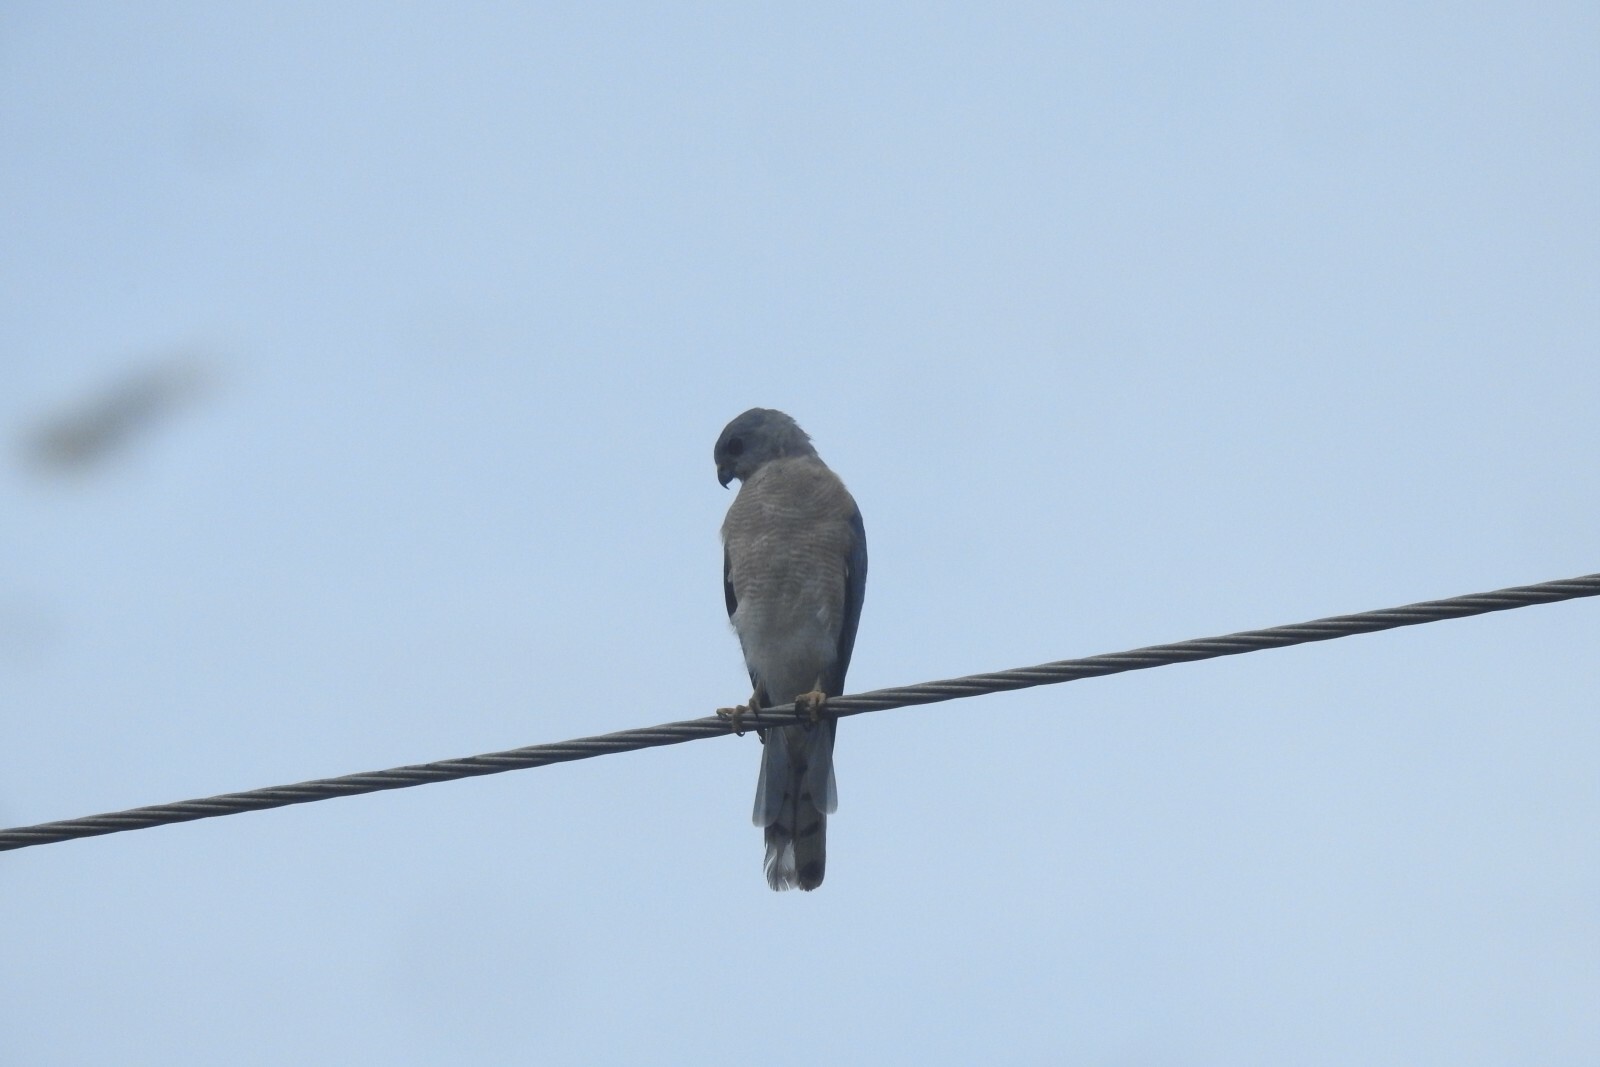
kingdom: Animalia
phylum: Chordata
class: Aves
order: Accipitriformes
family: Accipitridae
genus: Accipiter
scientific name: Accipiter badius
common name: Shikra
